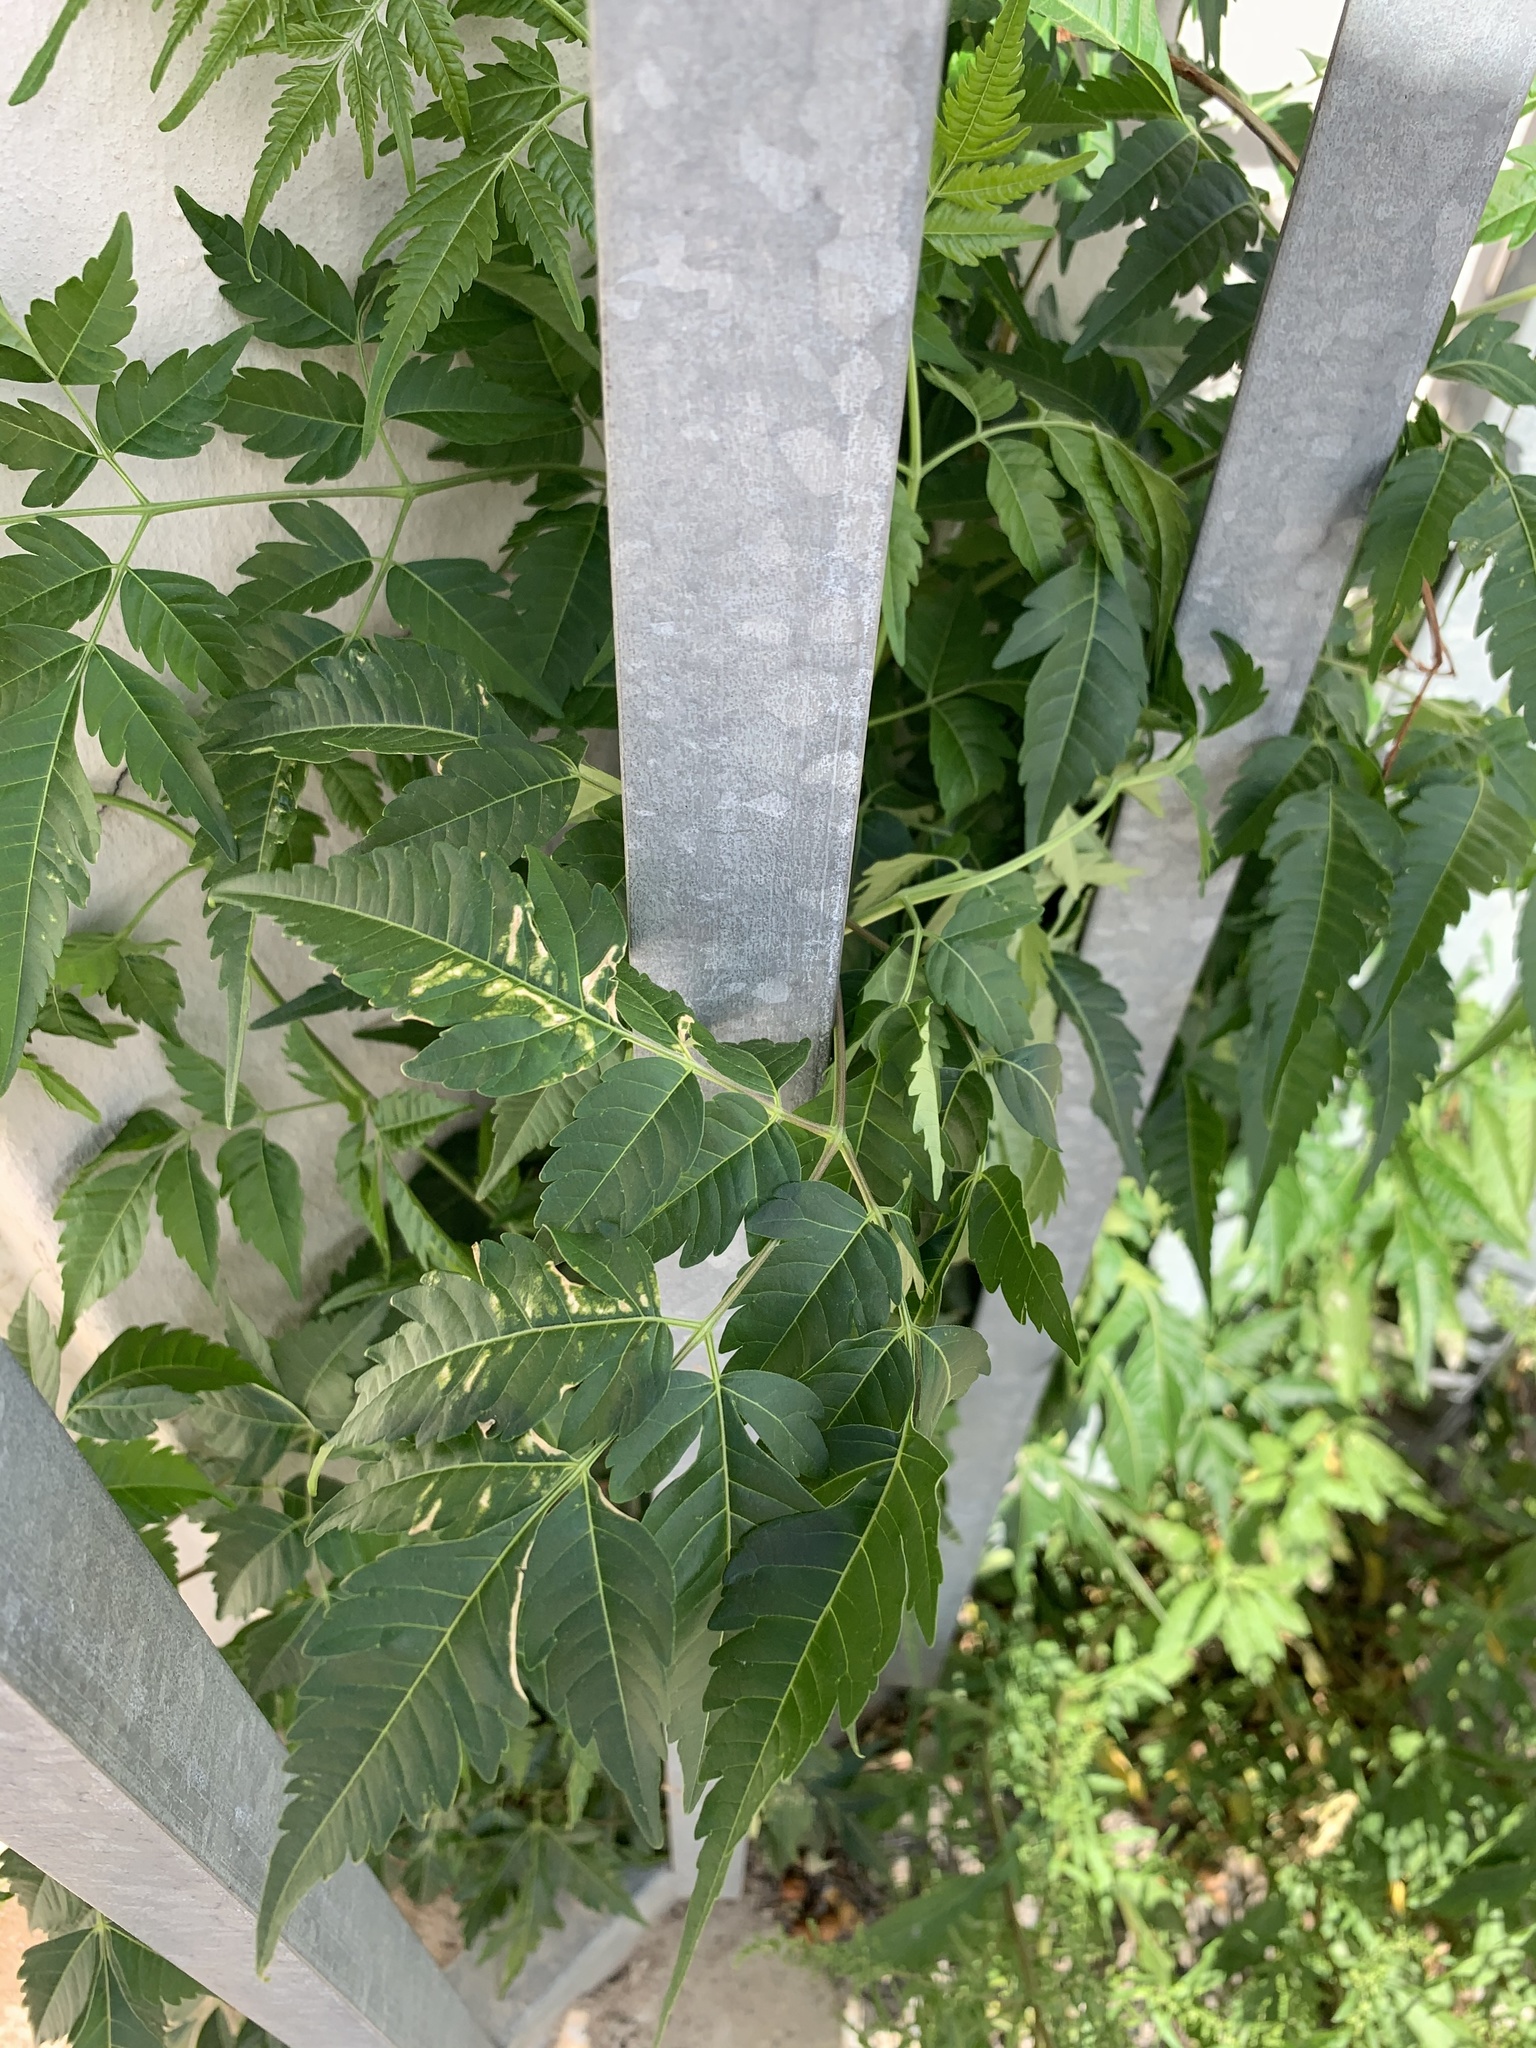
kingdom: Plantae
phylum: Tracheophyta
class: Magnoliopsida
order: Sapindales
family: Meliaceae
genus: Melia
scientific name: Melia azedarach
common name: Chinaberrytree
